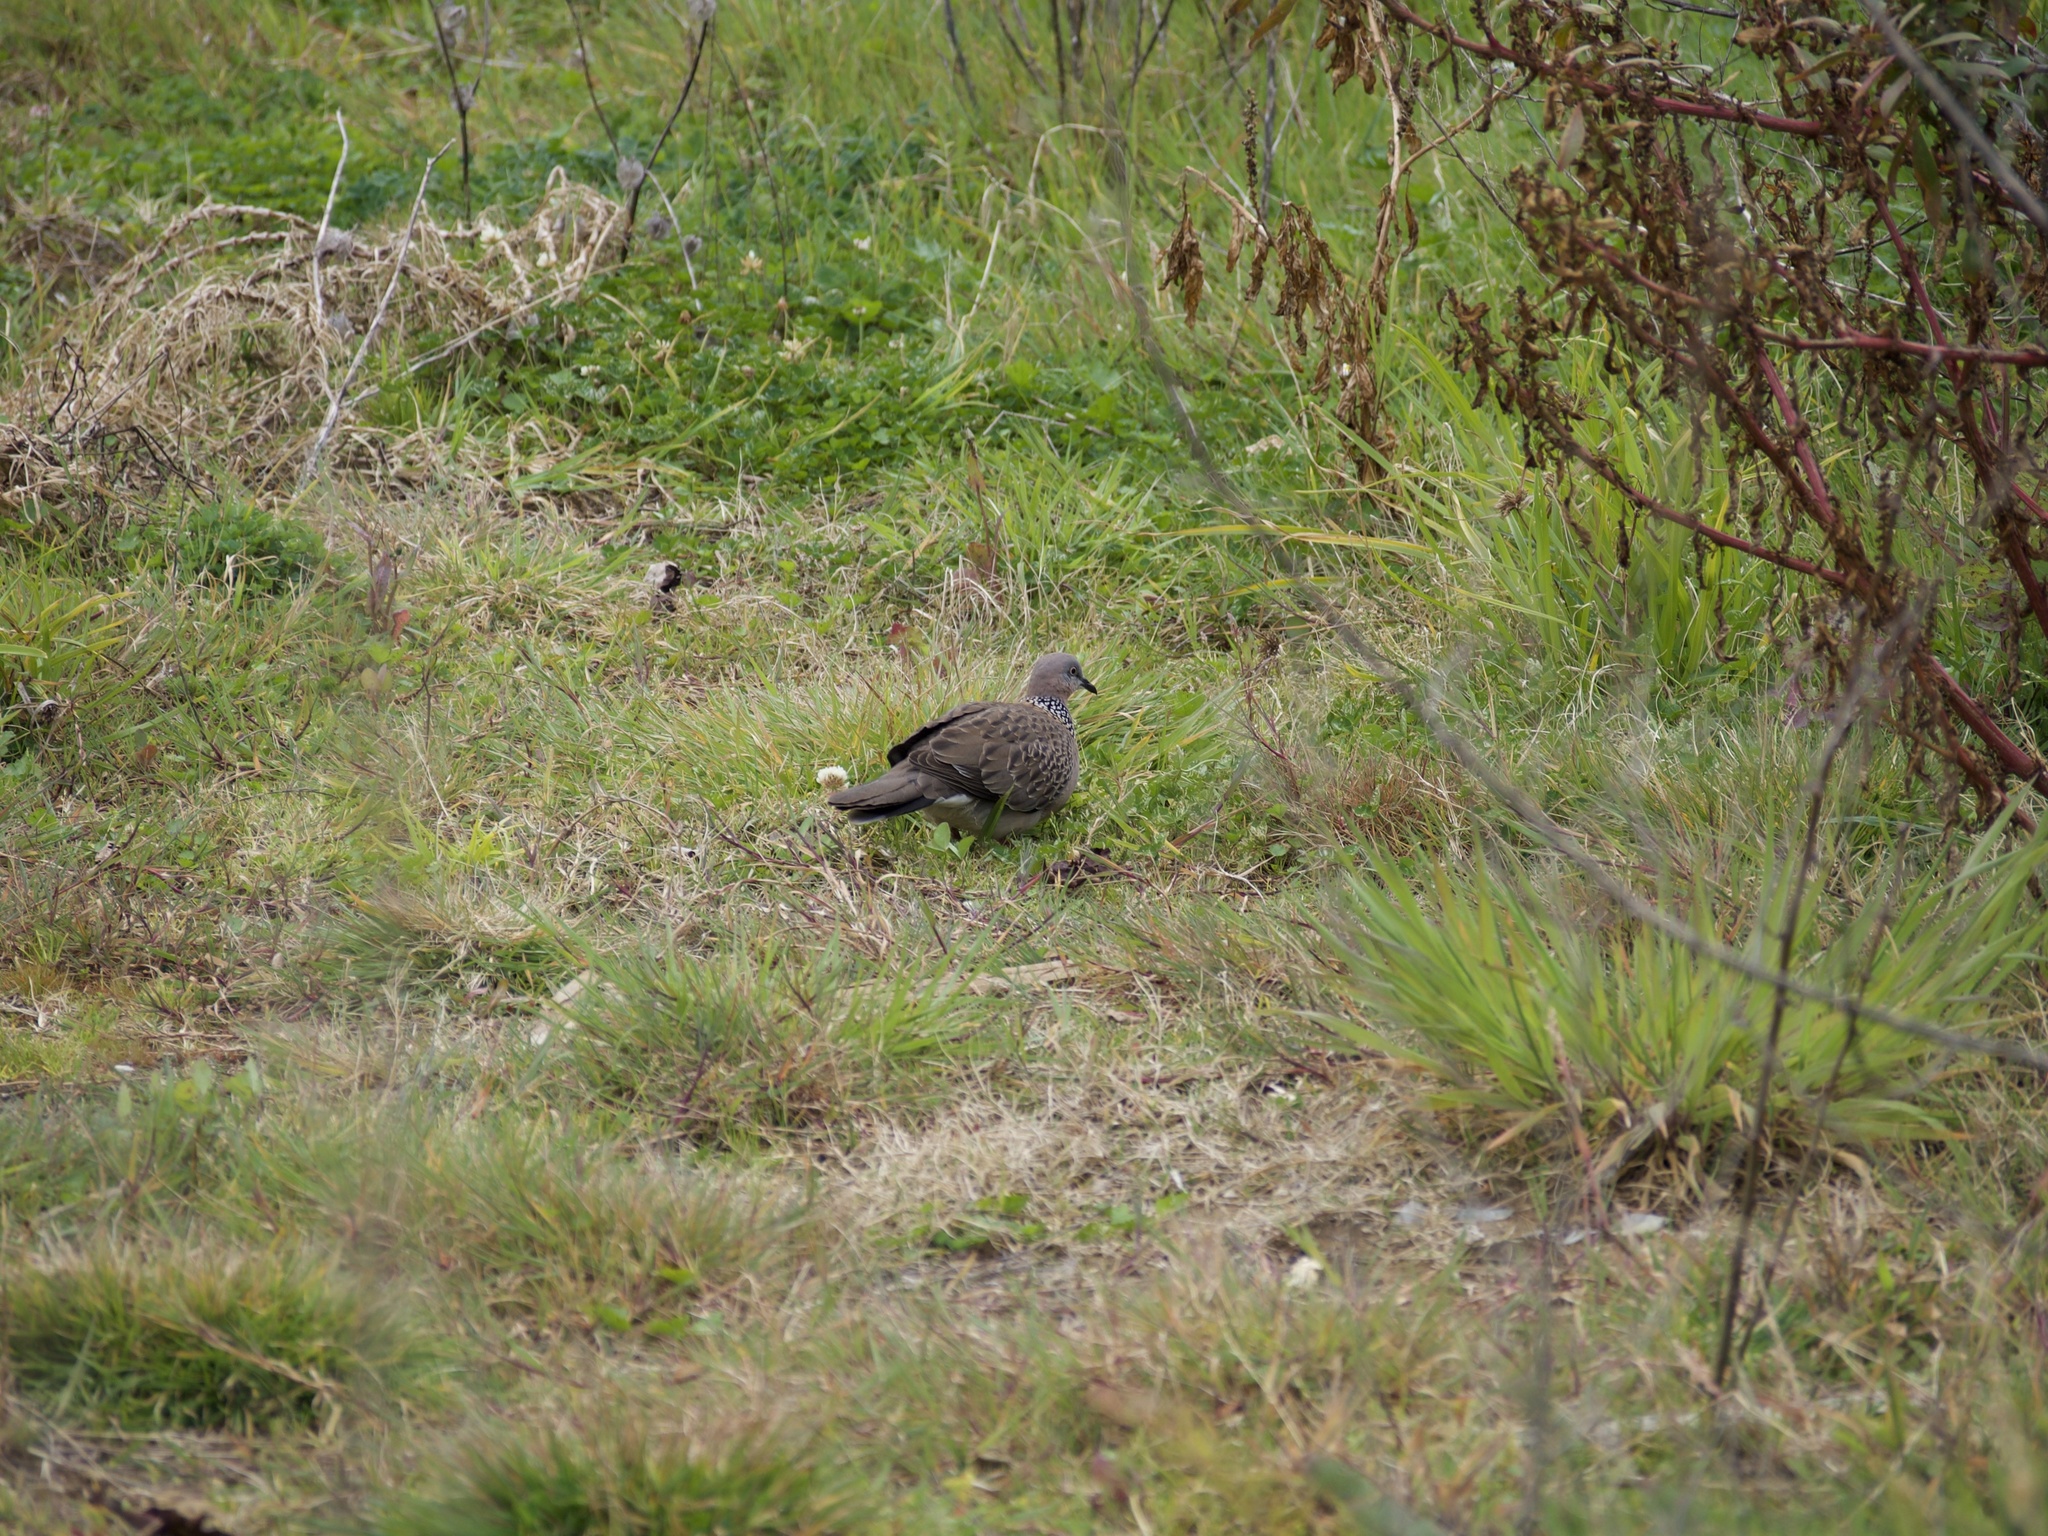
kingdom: Animalia
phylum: Chordata
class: Aves
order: Columbiformes
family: Columbidae
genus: Spilopelia
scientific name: Spilopelia chinensis
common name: Spotted dove
